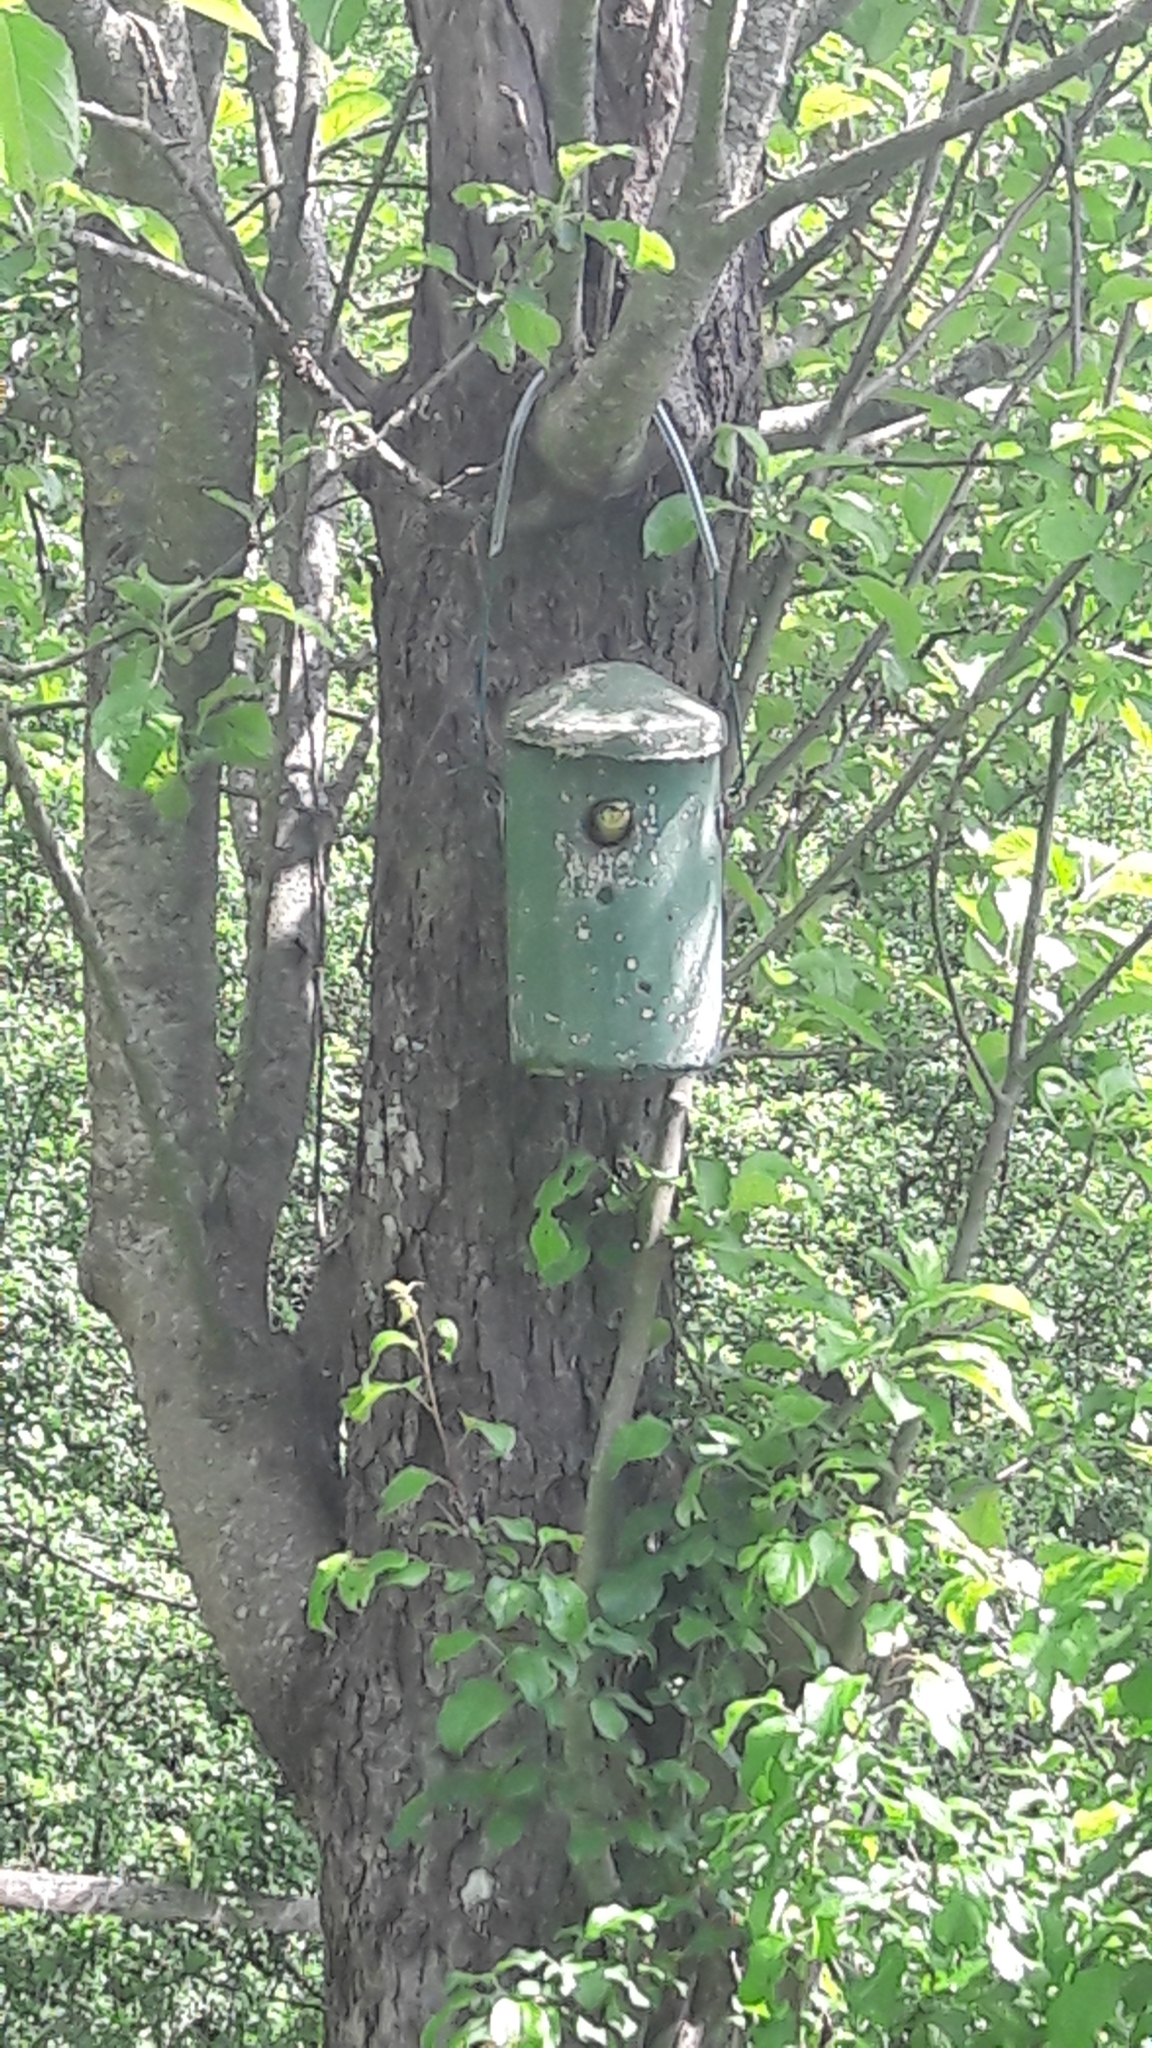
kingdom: Animalia
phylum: Chordata
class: Aves
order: Passeriformes
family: Paridae
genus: Cyanistes
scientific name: Cyanistes caeruleus
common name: Eurasian blue tit
